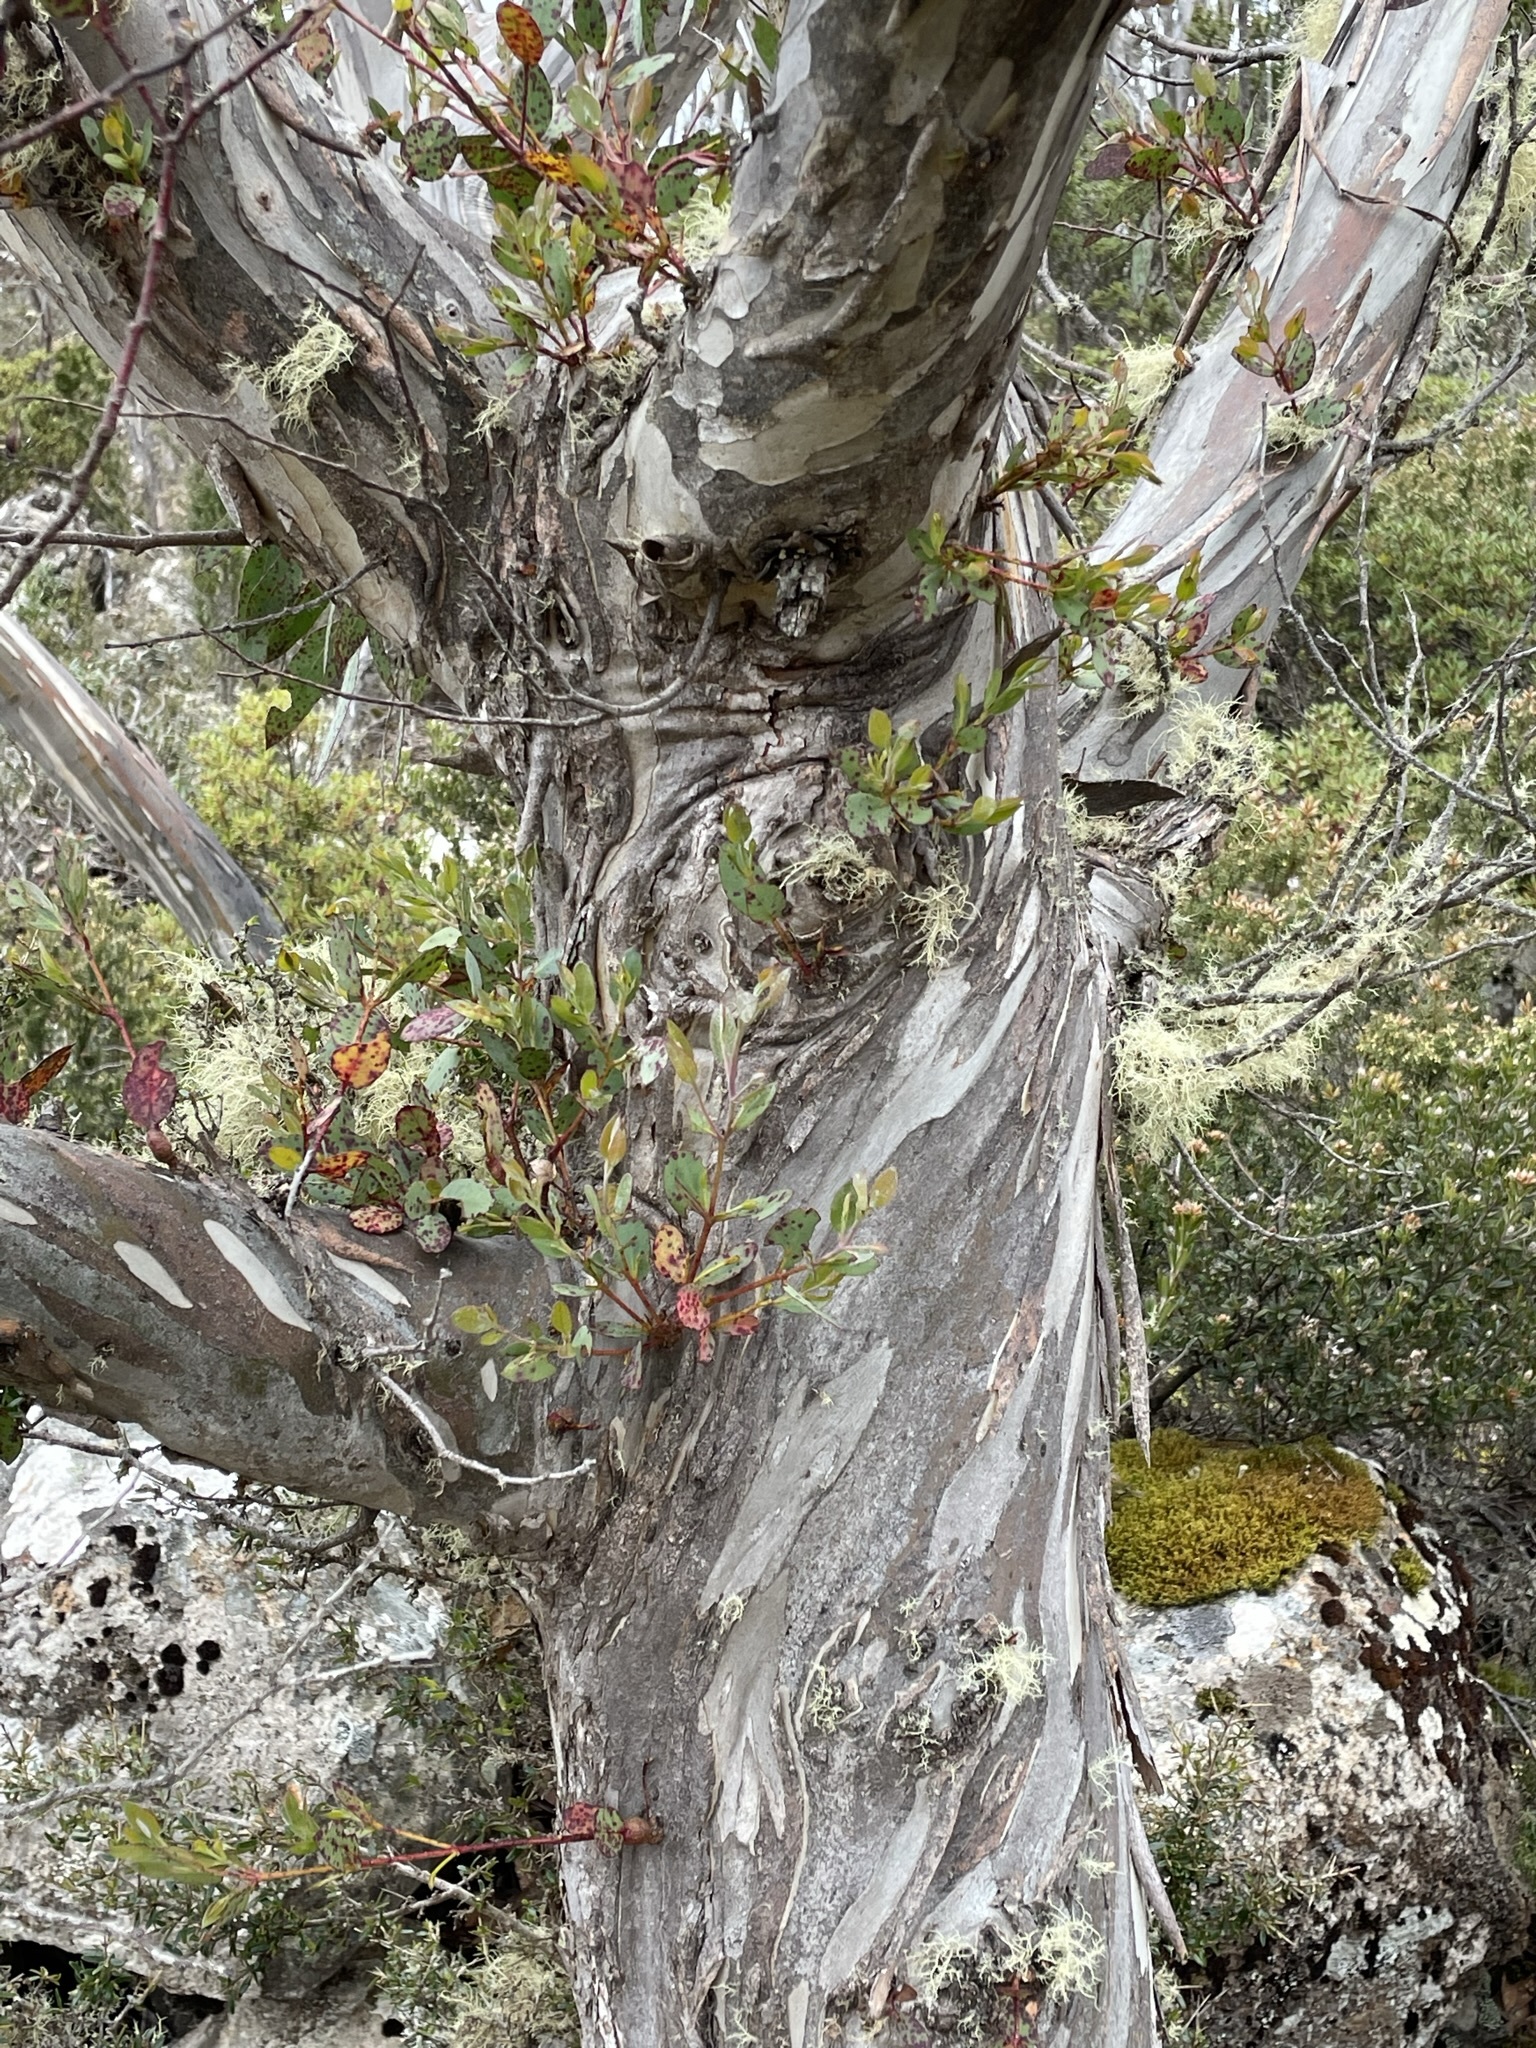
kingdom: Plantae
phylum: Tracheophyta
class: Magnoliopsida
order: Myrtales
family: Myrtaceae
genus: Eucalyptus
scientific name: Eucalyptus coccifera
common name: Tasmanian snow-gum
